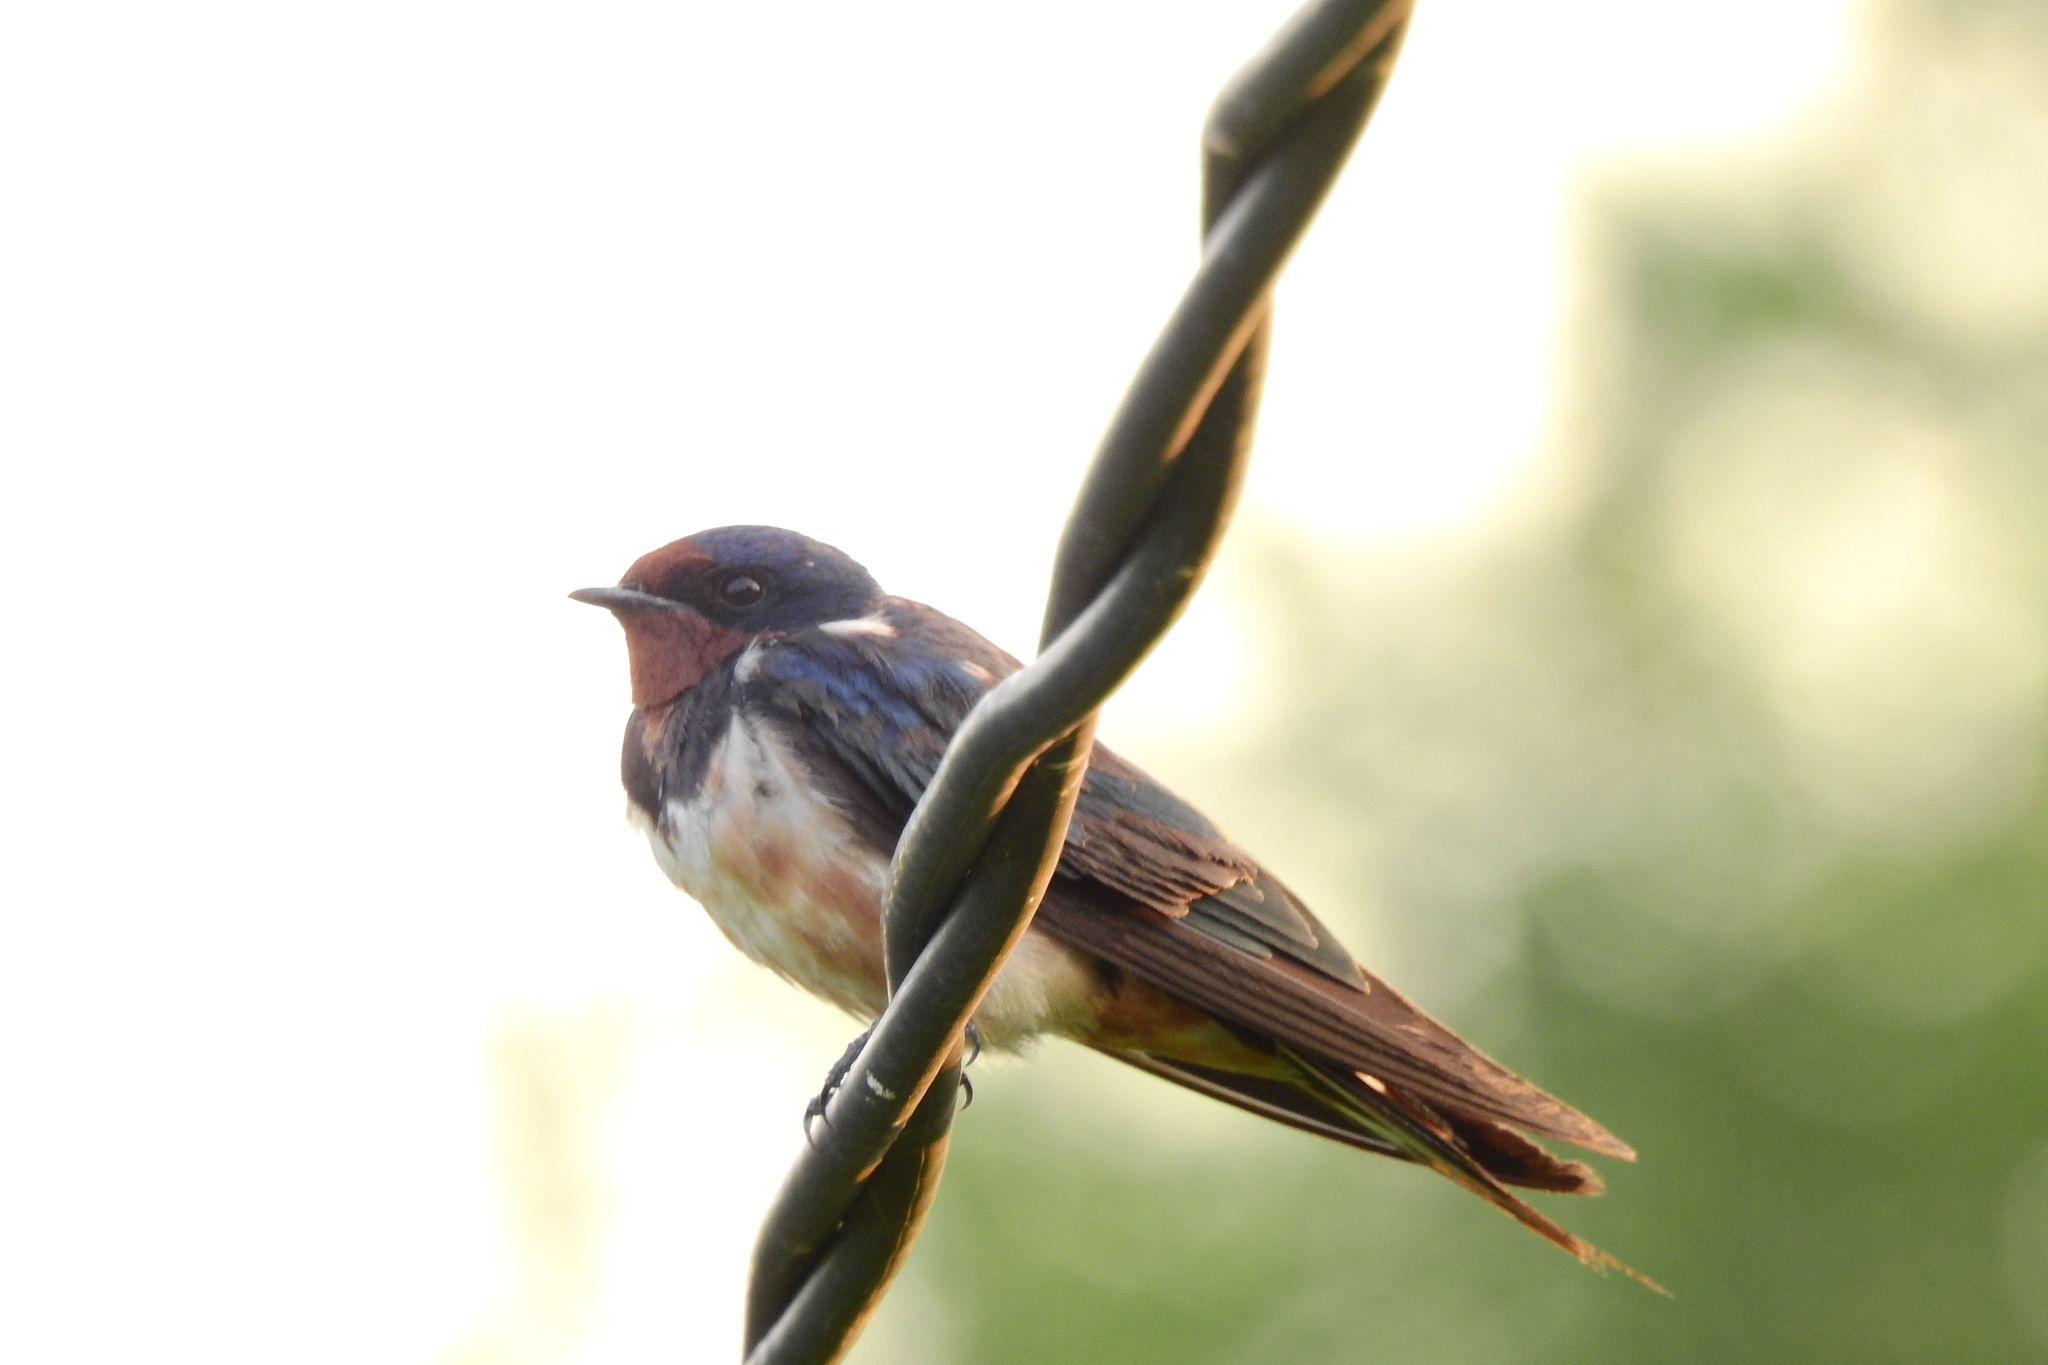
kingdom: Animalia
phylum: Chordata
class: Aves
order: Passeriformes
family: Hirundinidae
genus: Hirundo
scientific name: Hirundo rustica
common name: Barn swallow
